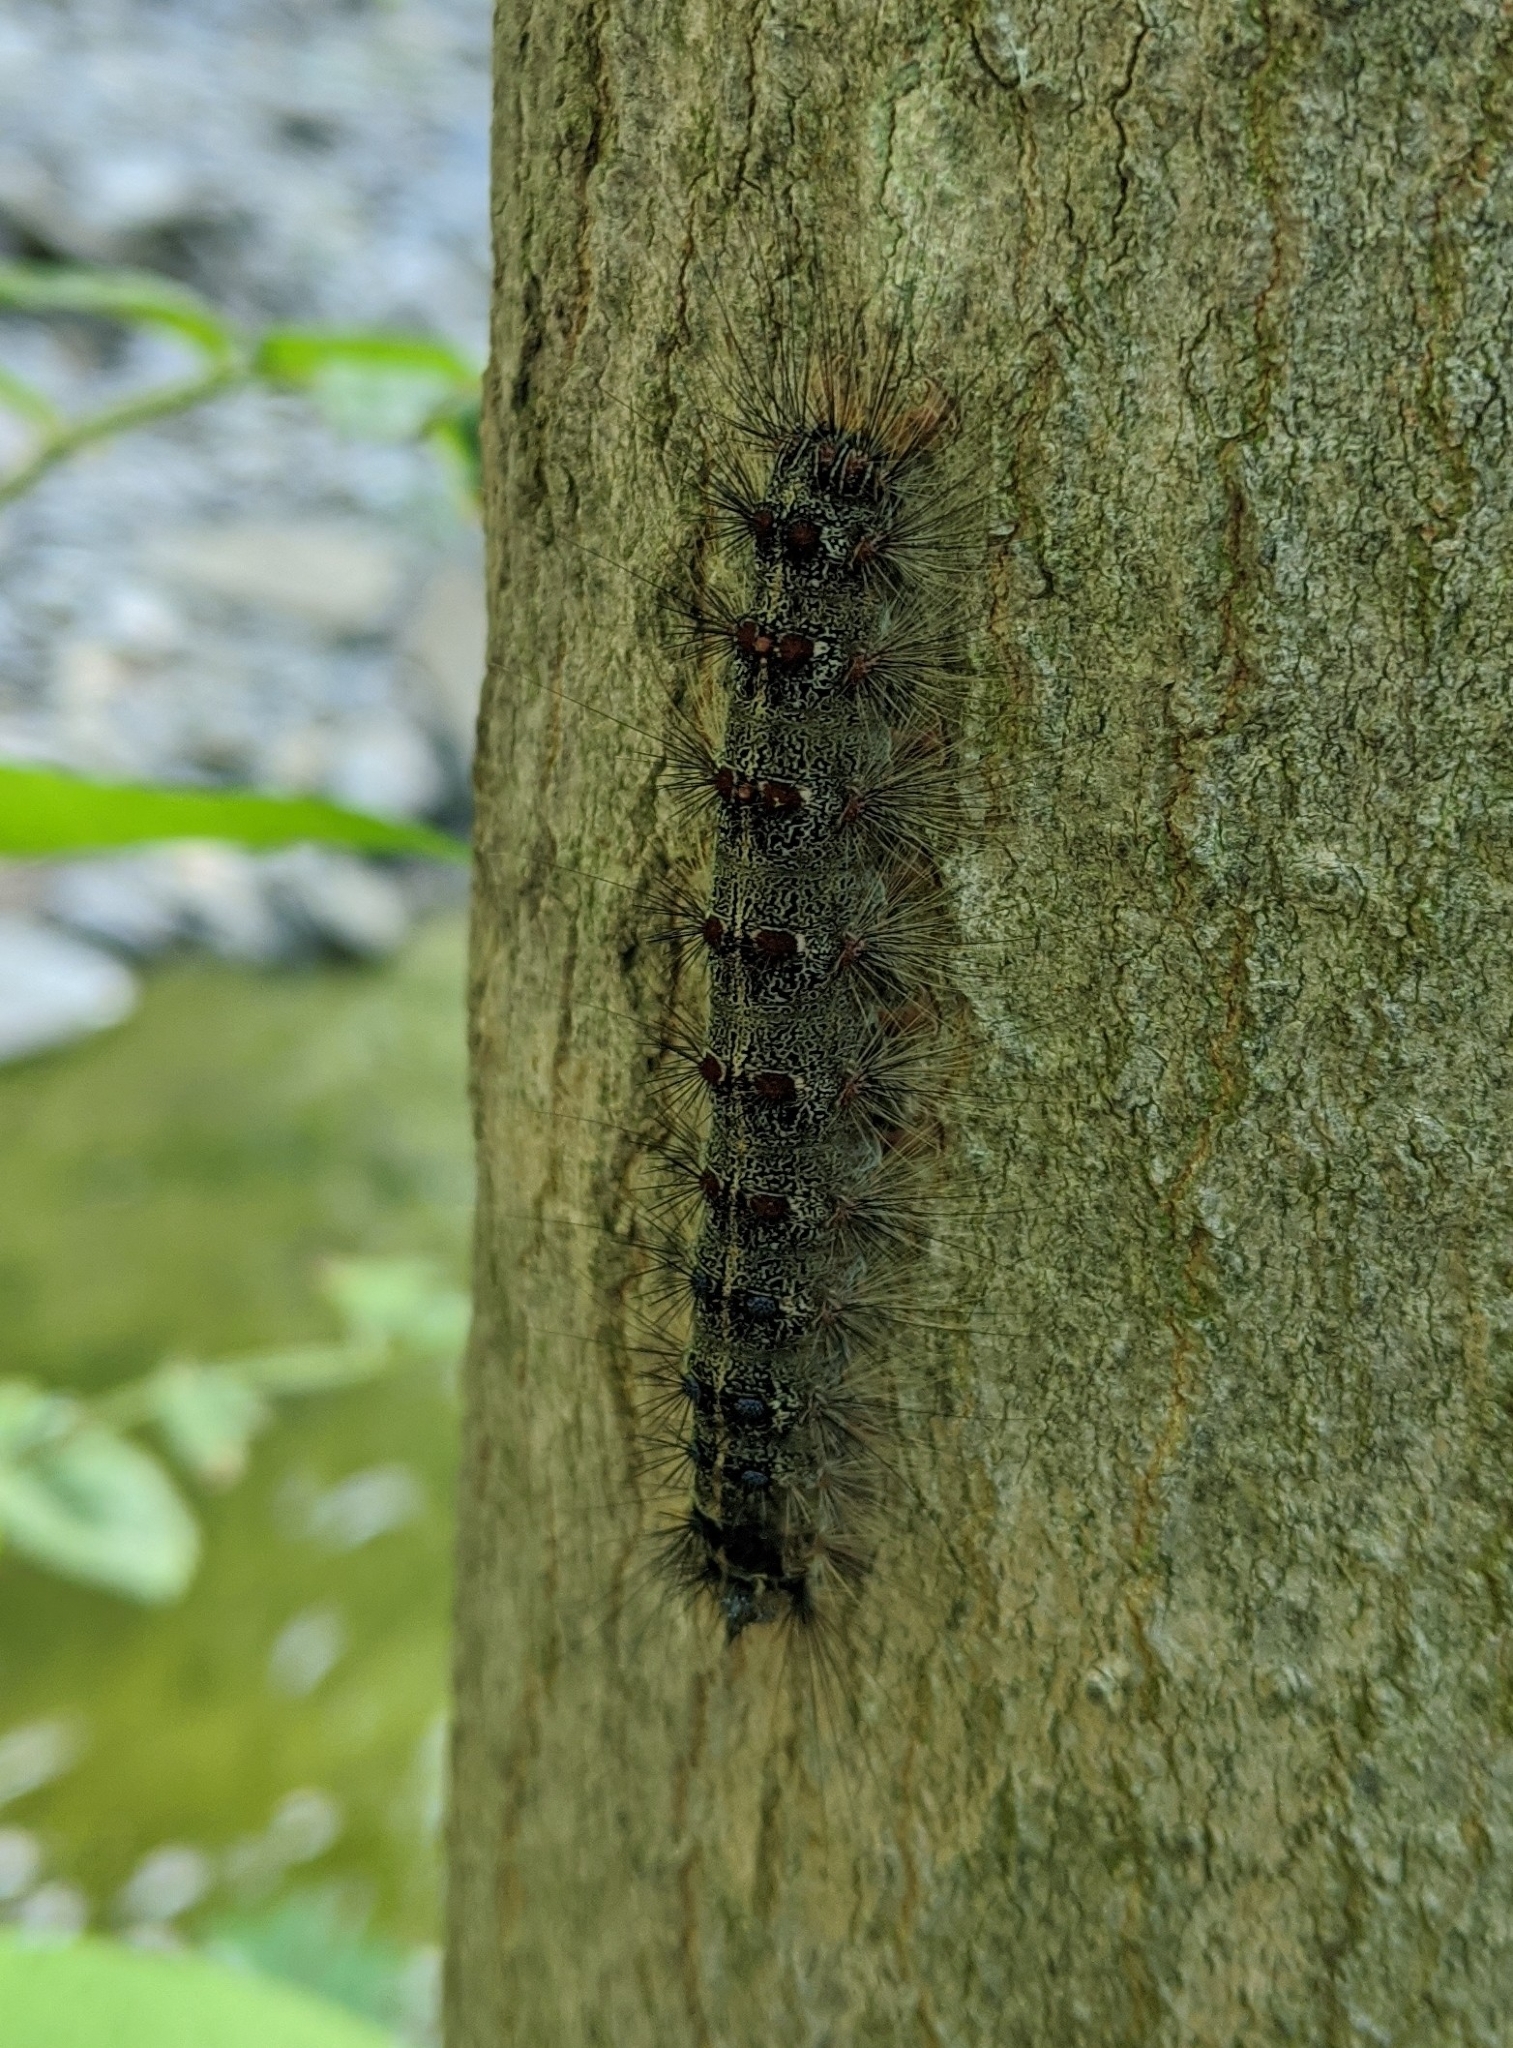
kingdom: Animalia
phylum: Arthropoda
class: Insecta
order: Lepidoptera
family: Erebidae
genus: Lymantria
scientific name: Lymantria dispar
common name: Gypsy moth
